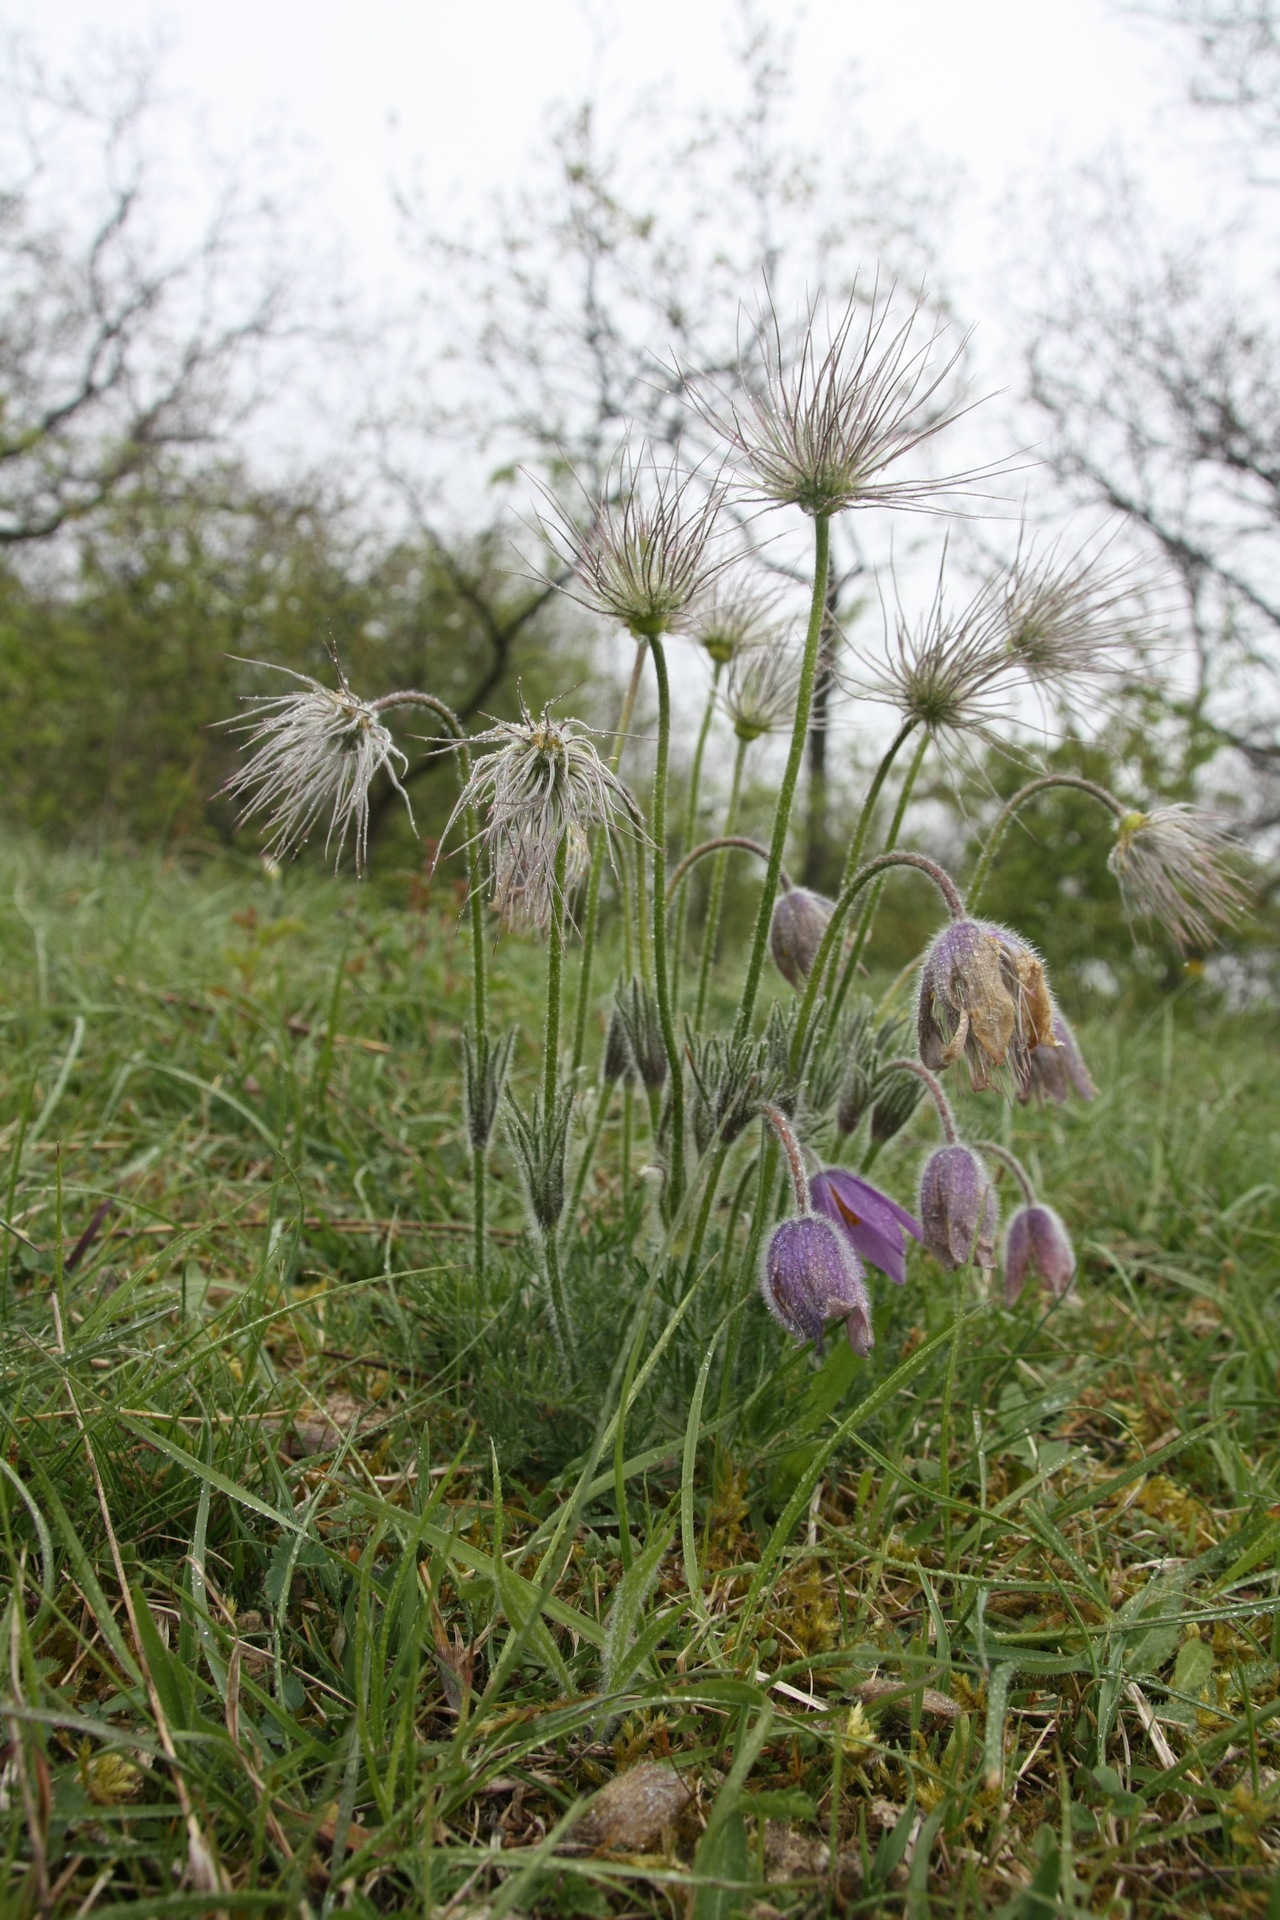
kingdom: Plantae
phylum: Tracheophyta
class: Magnoliopsida
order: Ranunculales
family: Ranunculaceae
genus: Pulsatilla
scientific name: Pulsatilla vulgaris
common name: Pasqueflower
